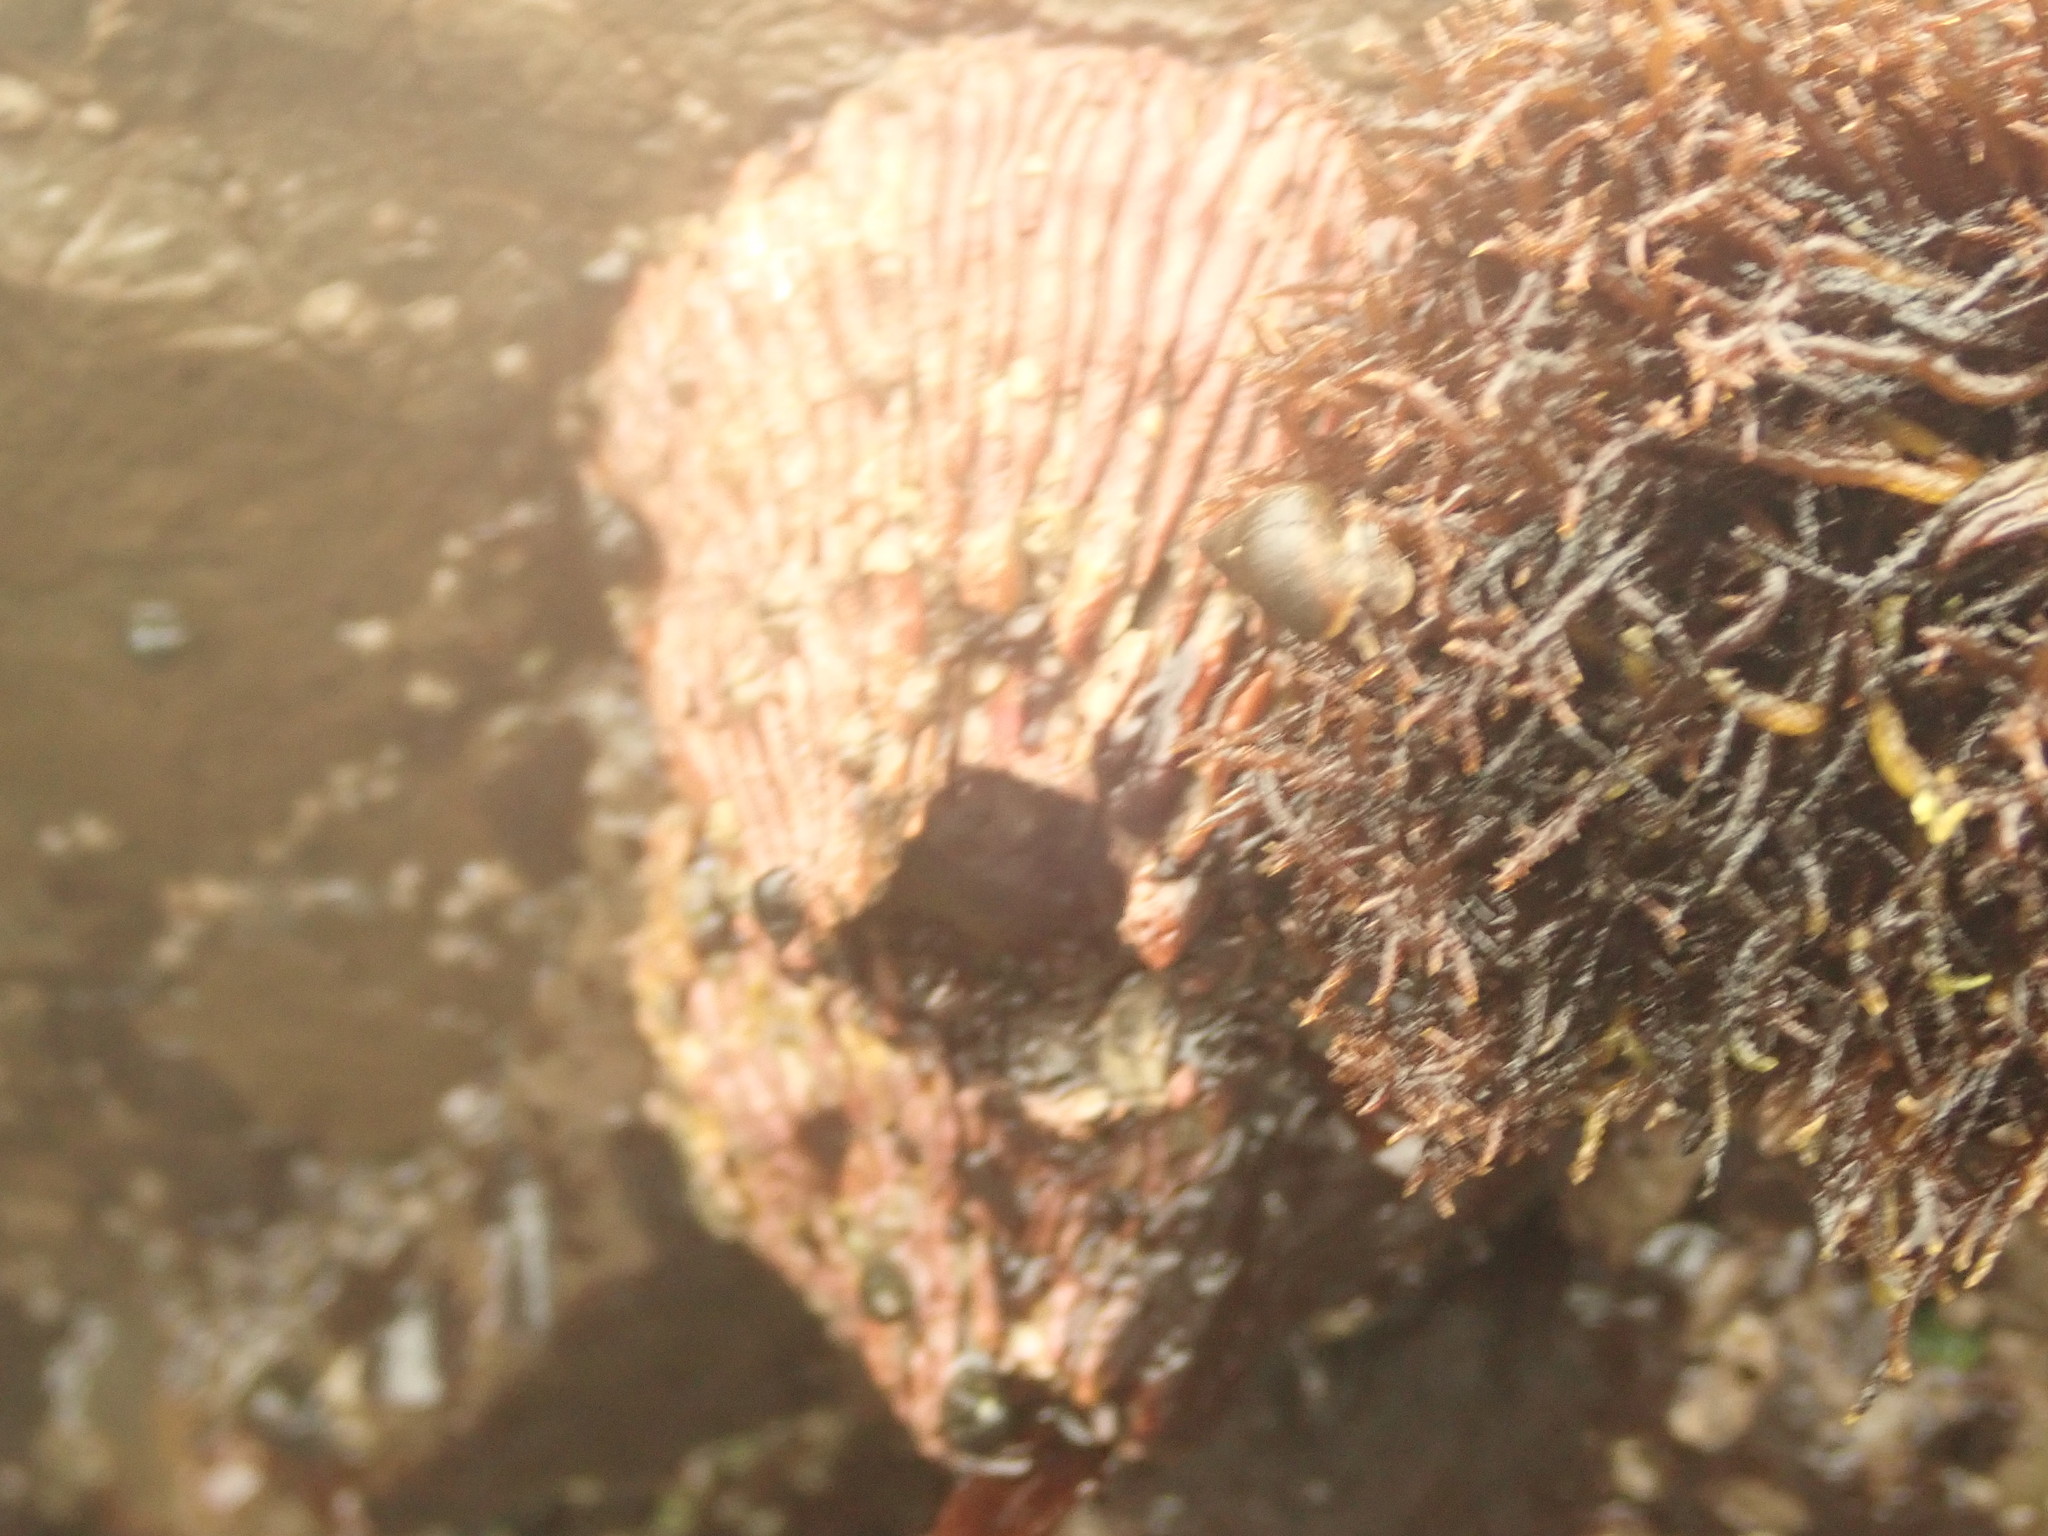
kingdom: Animalia
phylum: Arthropoda
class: Maxillopoda
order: Sessilia
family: Tetraclitidae
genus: Tetraclita
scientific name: Tetraclita rubescens
